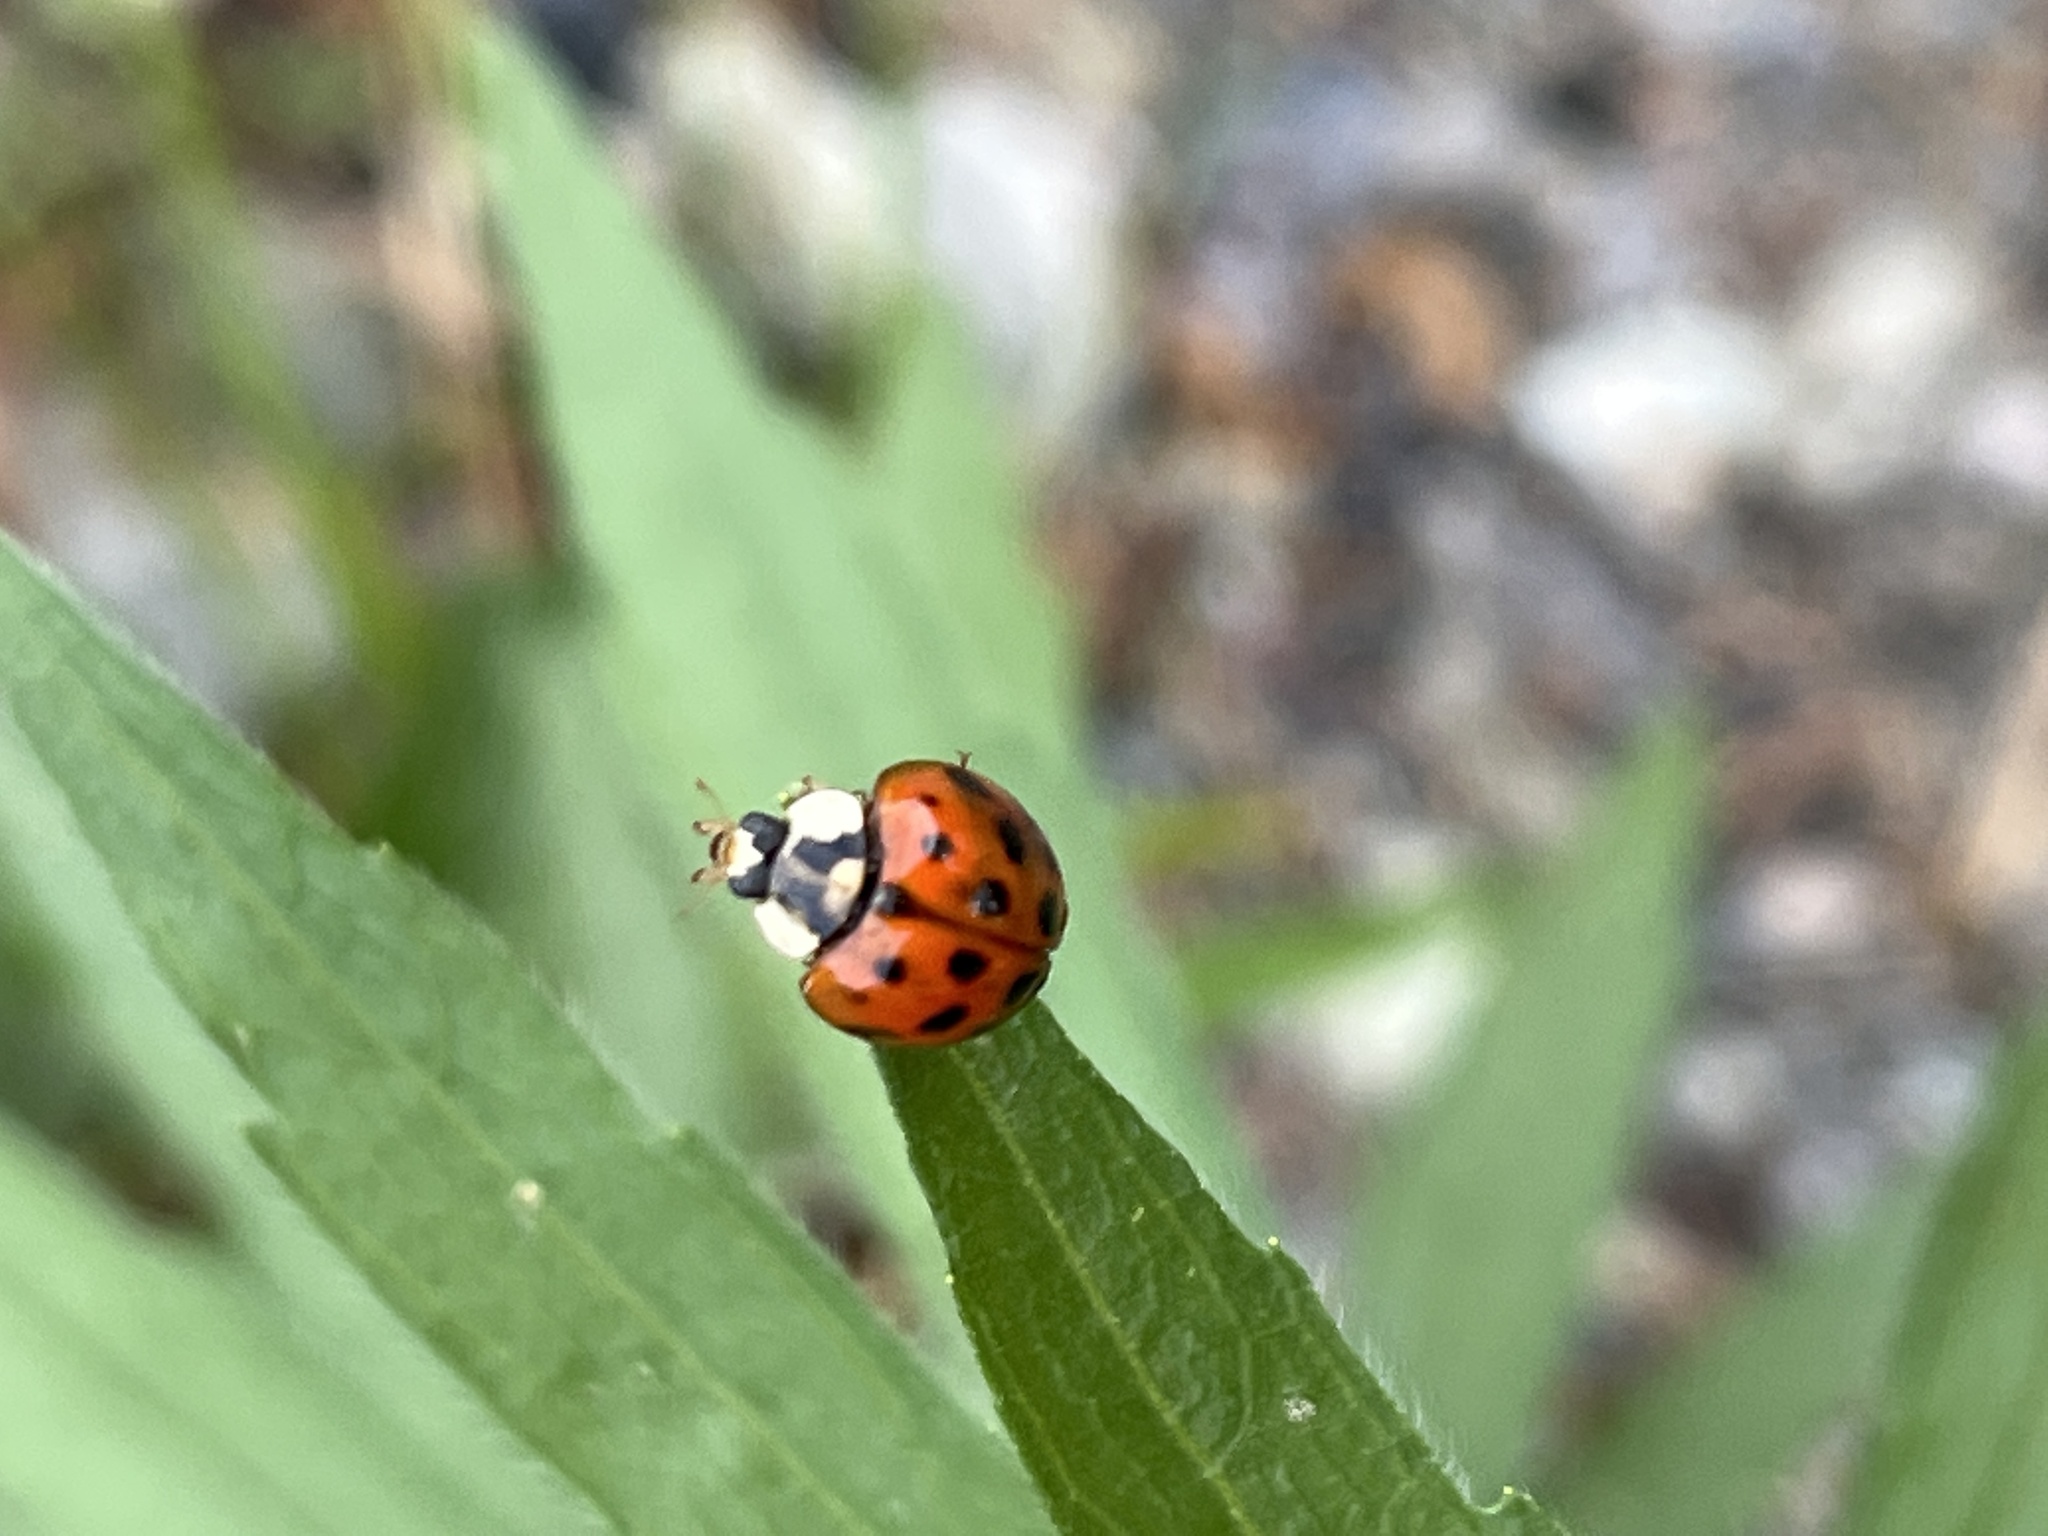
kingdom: Animalia
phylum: Arthropoda
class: Insecta
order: Coleoptera
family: Coccinellidae
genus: Harmonia
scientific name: Harmonia axyridis
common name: Harlequin ladybird
